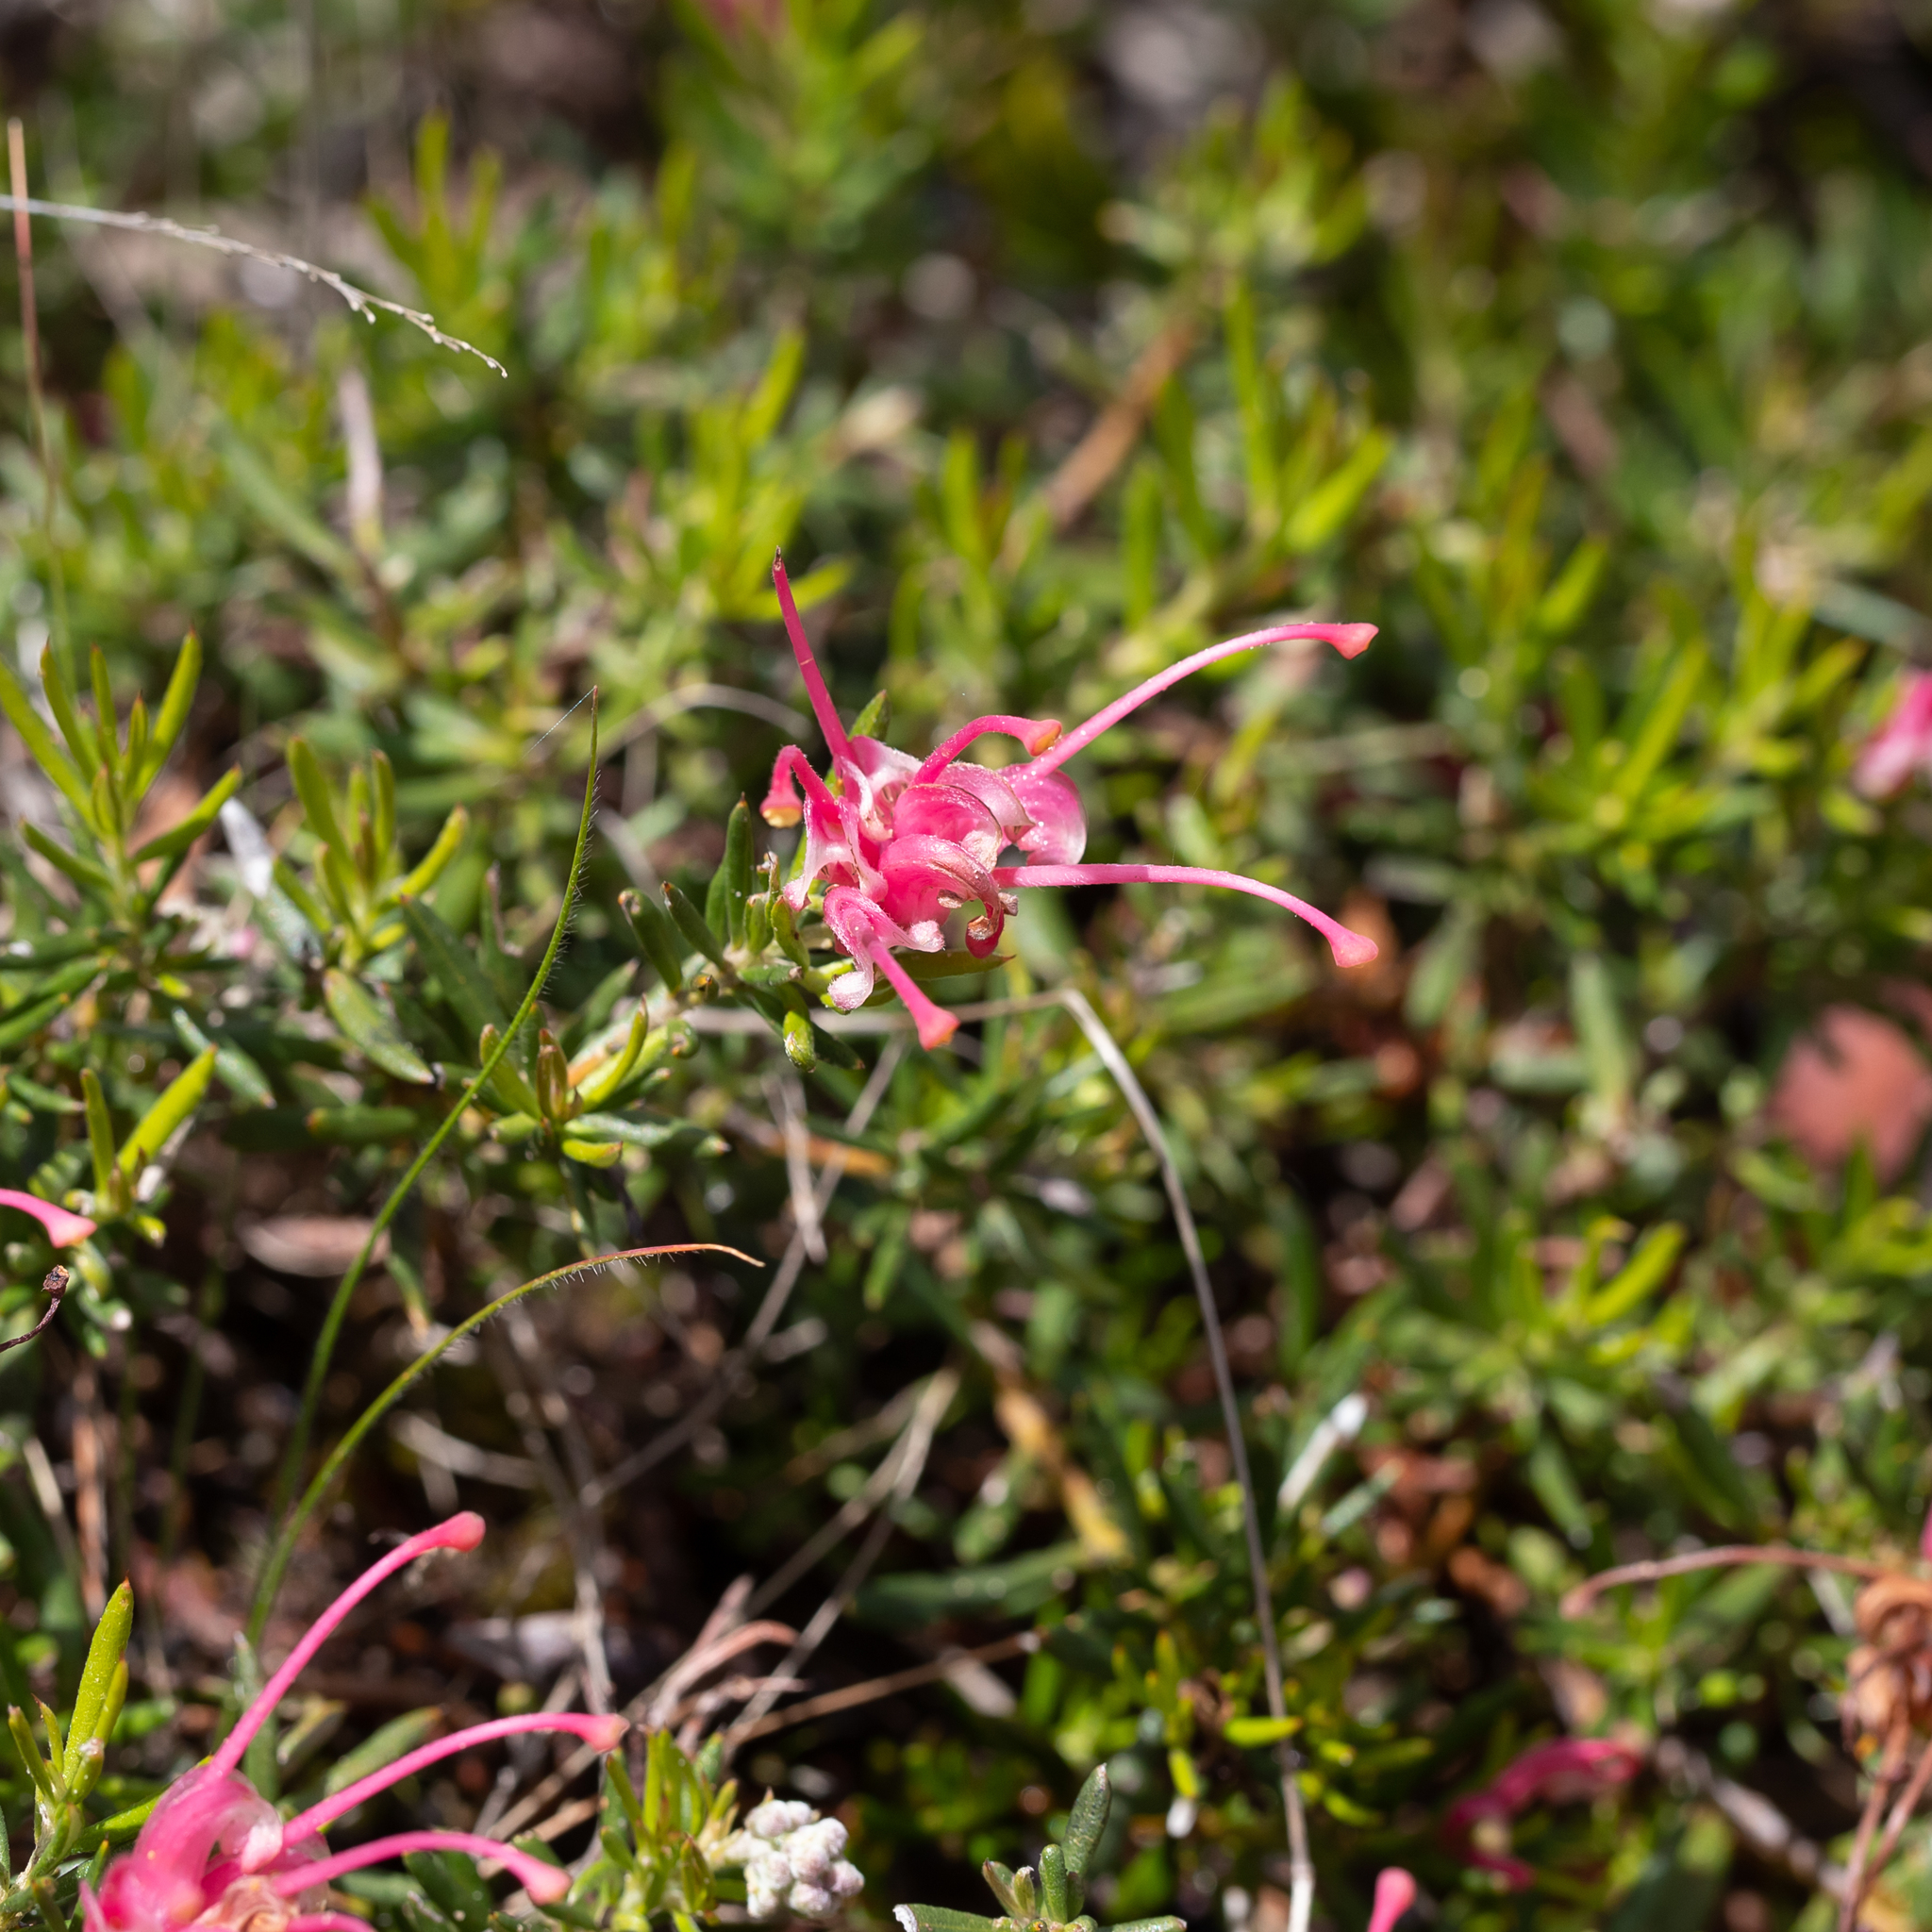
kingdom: Plantae
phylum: Tracheophyta
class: Magnoliopsida
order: Proteales
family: Proteaceae
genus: Grevillea
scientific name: Grevillea lavandulacea
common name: Lavender grevillea
